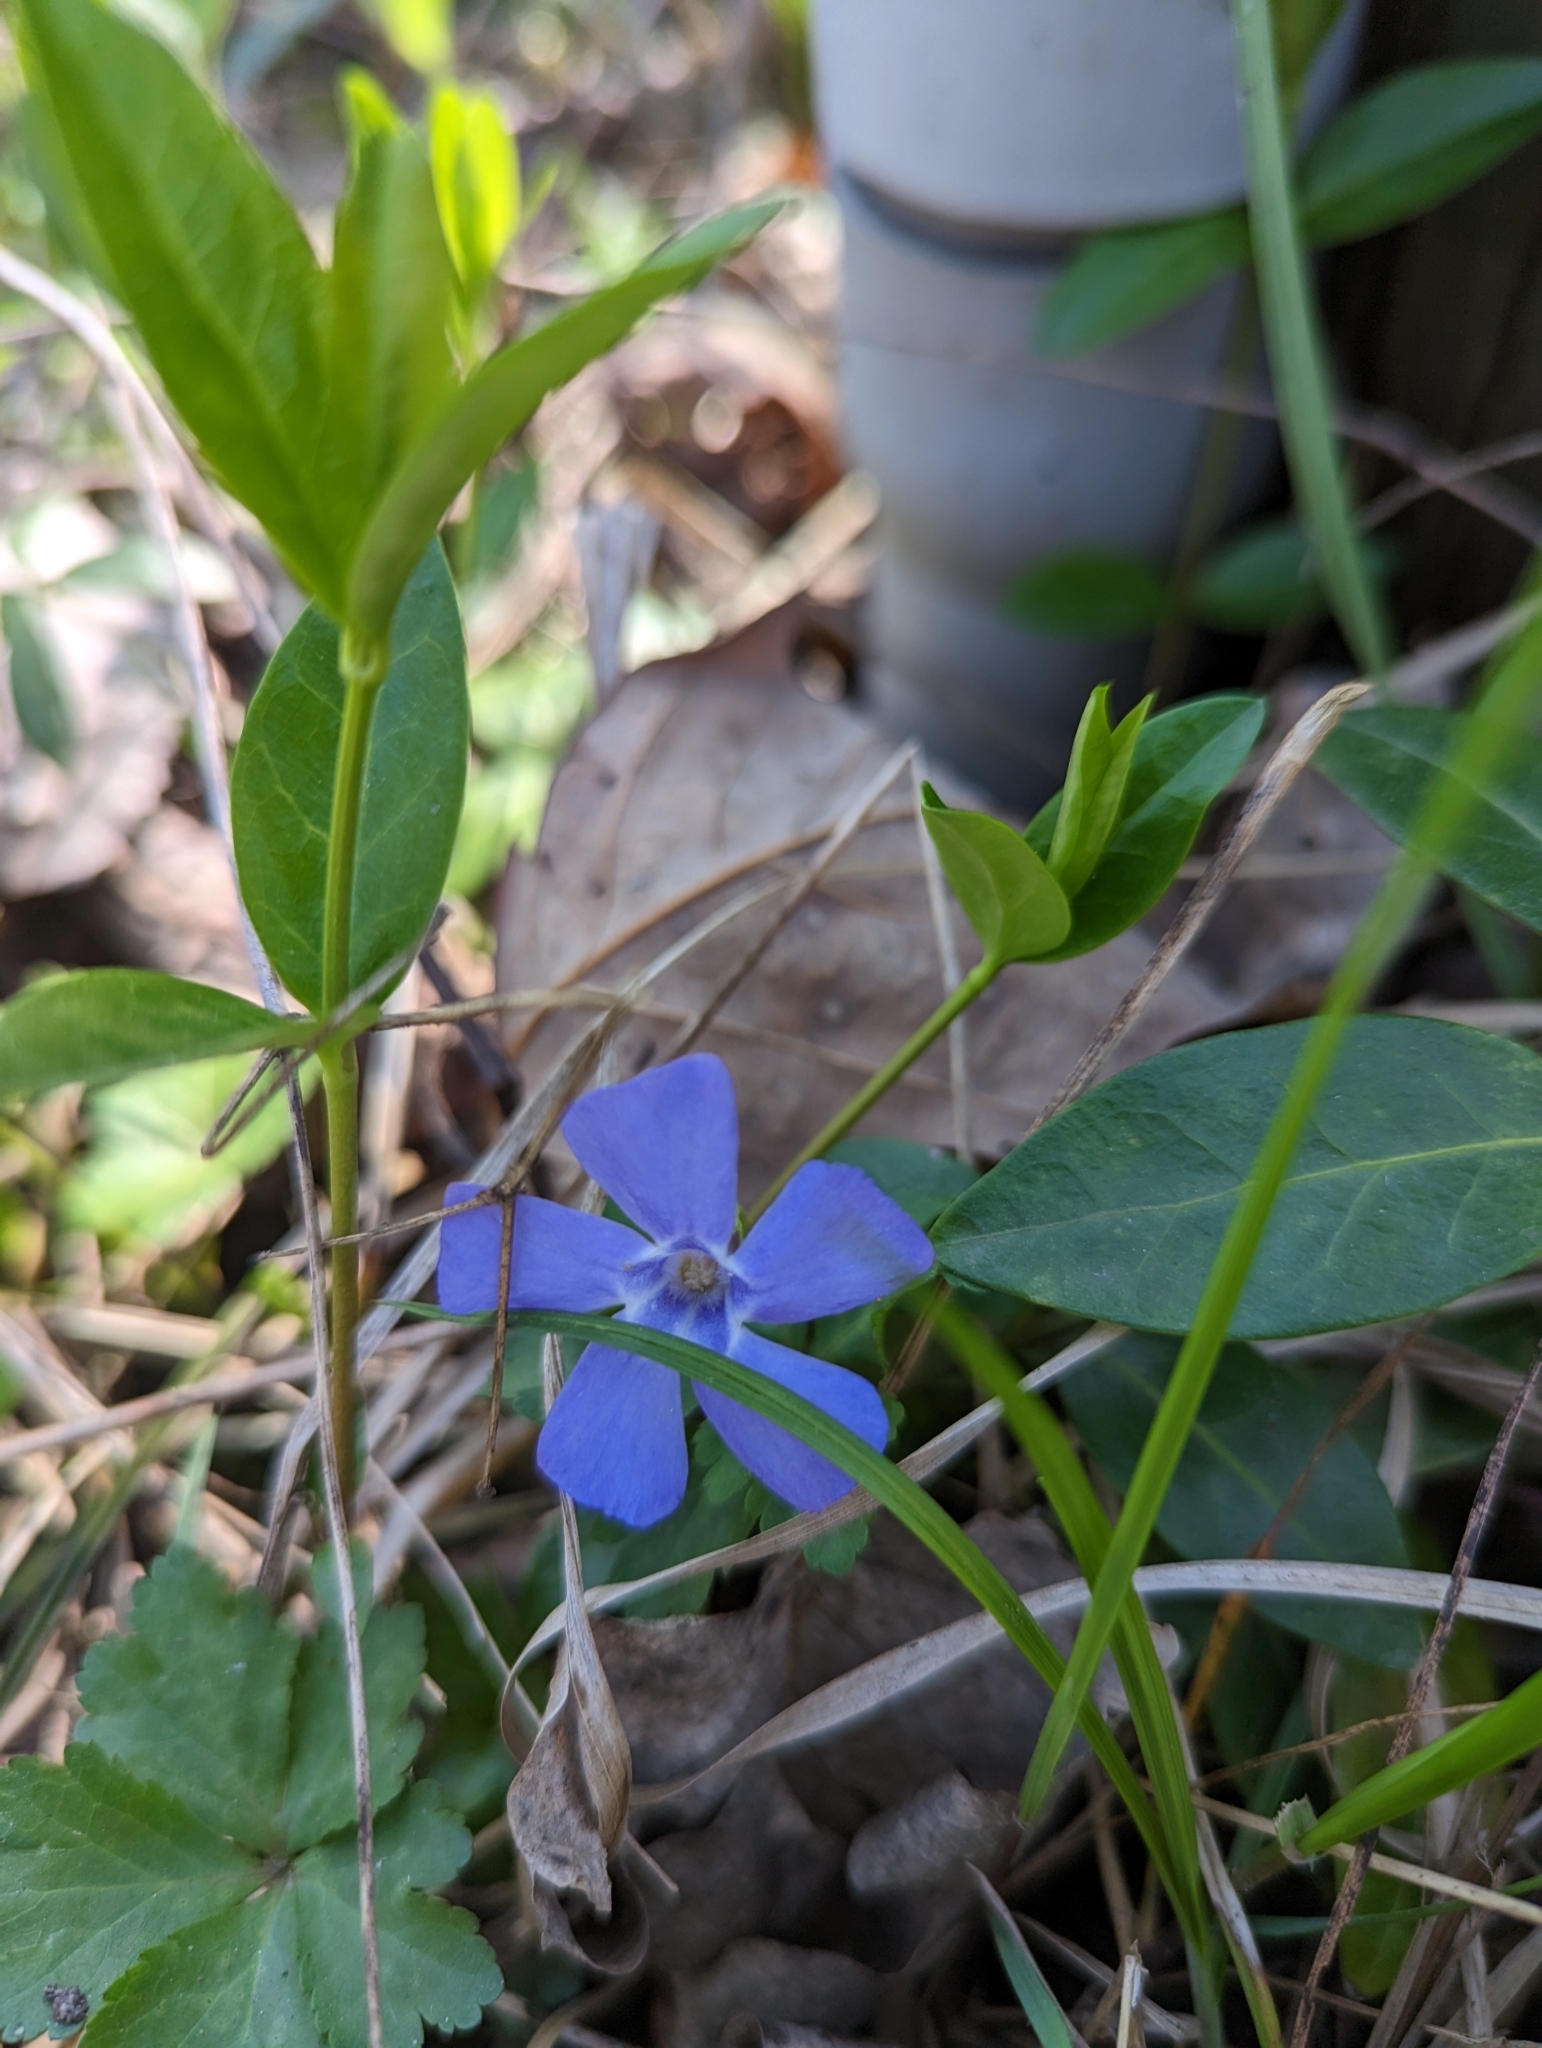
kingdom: Plantae
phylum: Tracheophyta
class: Magnoliopsida
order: Gentianales
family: Apocynaceae
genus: Vinca
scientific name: Vinca minor
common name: Lesser periwinkle
